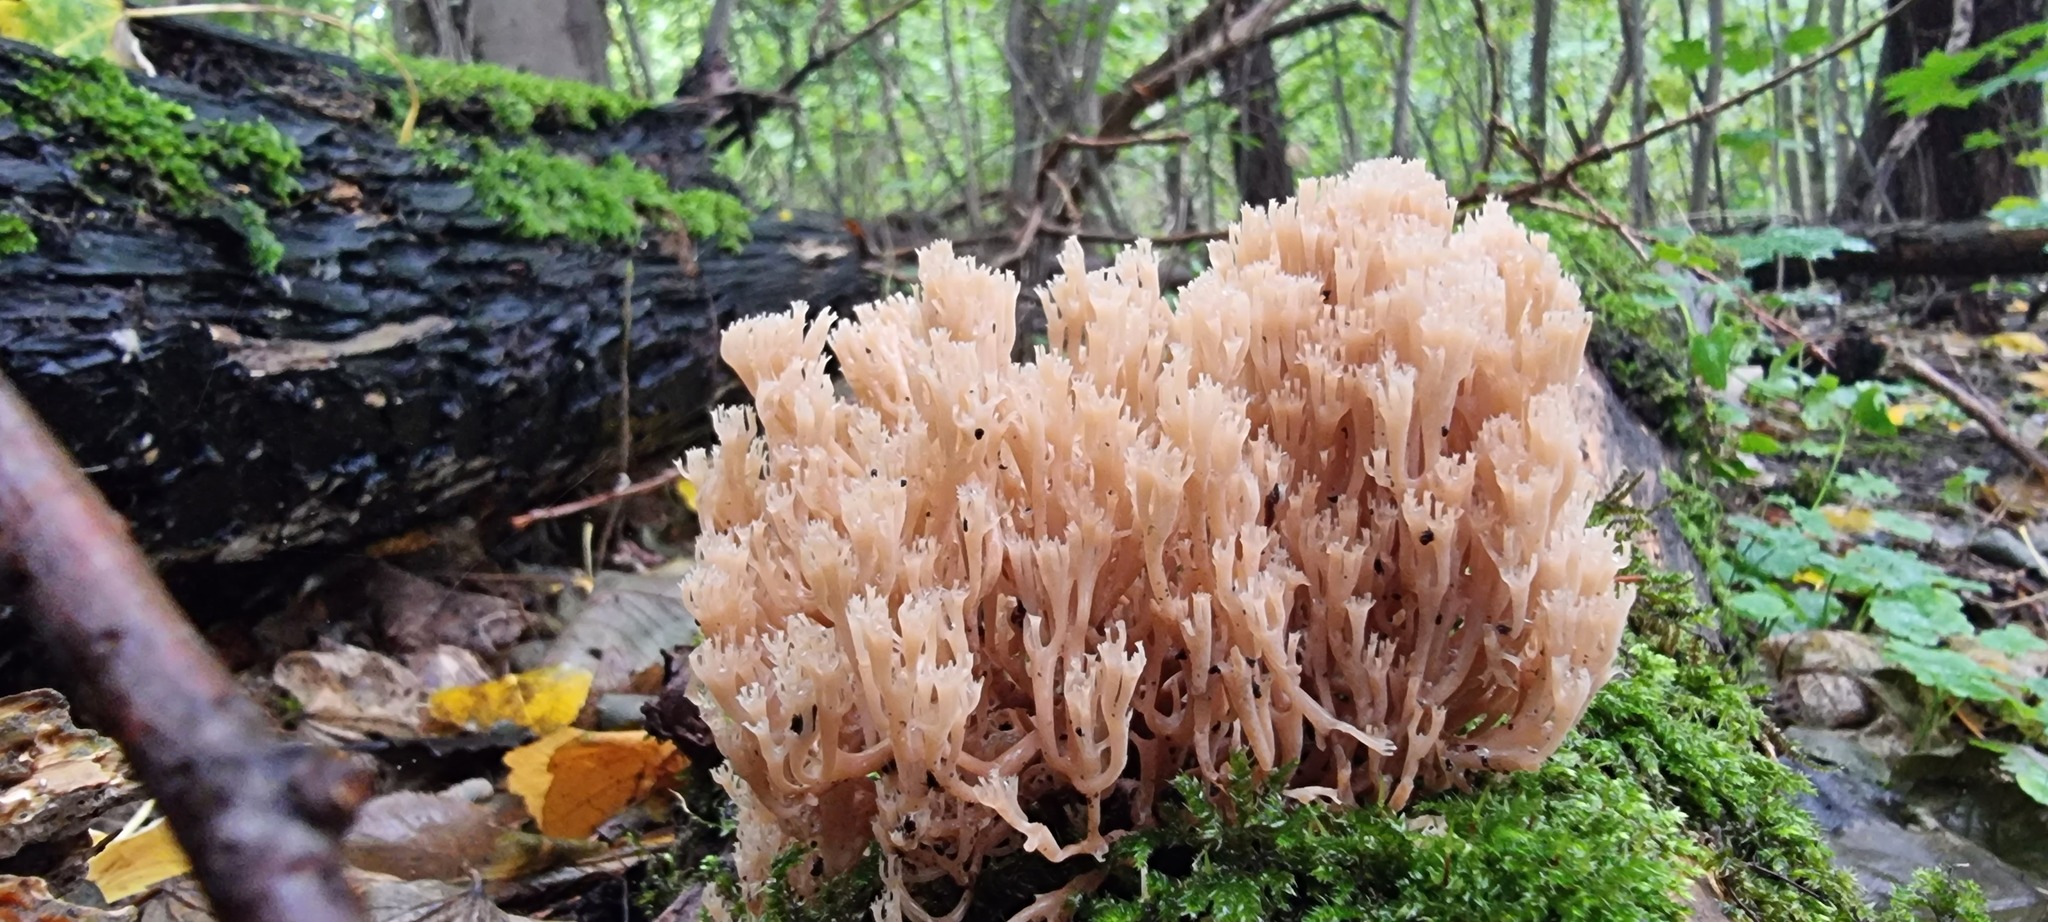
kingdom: Fungi
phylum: Basidiomycota
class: Agaricomycetes
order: Russulales
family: Auriscalpiaceae
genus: Artomyces
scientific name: Artomyces pyxidatus
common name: Crown-tipped coral fungus
